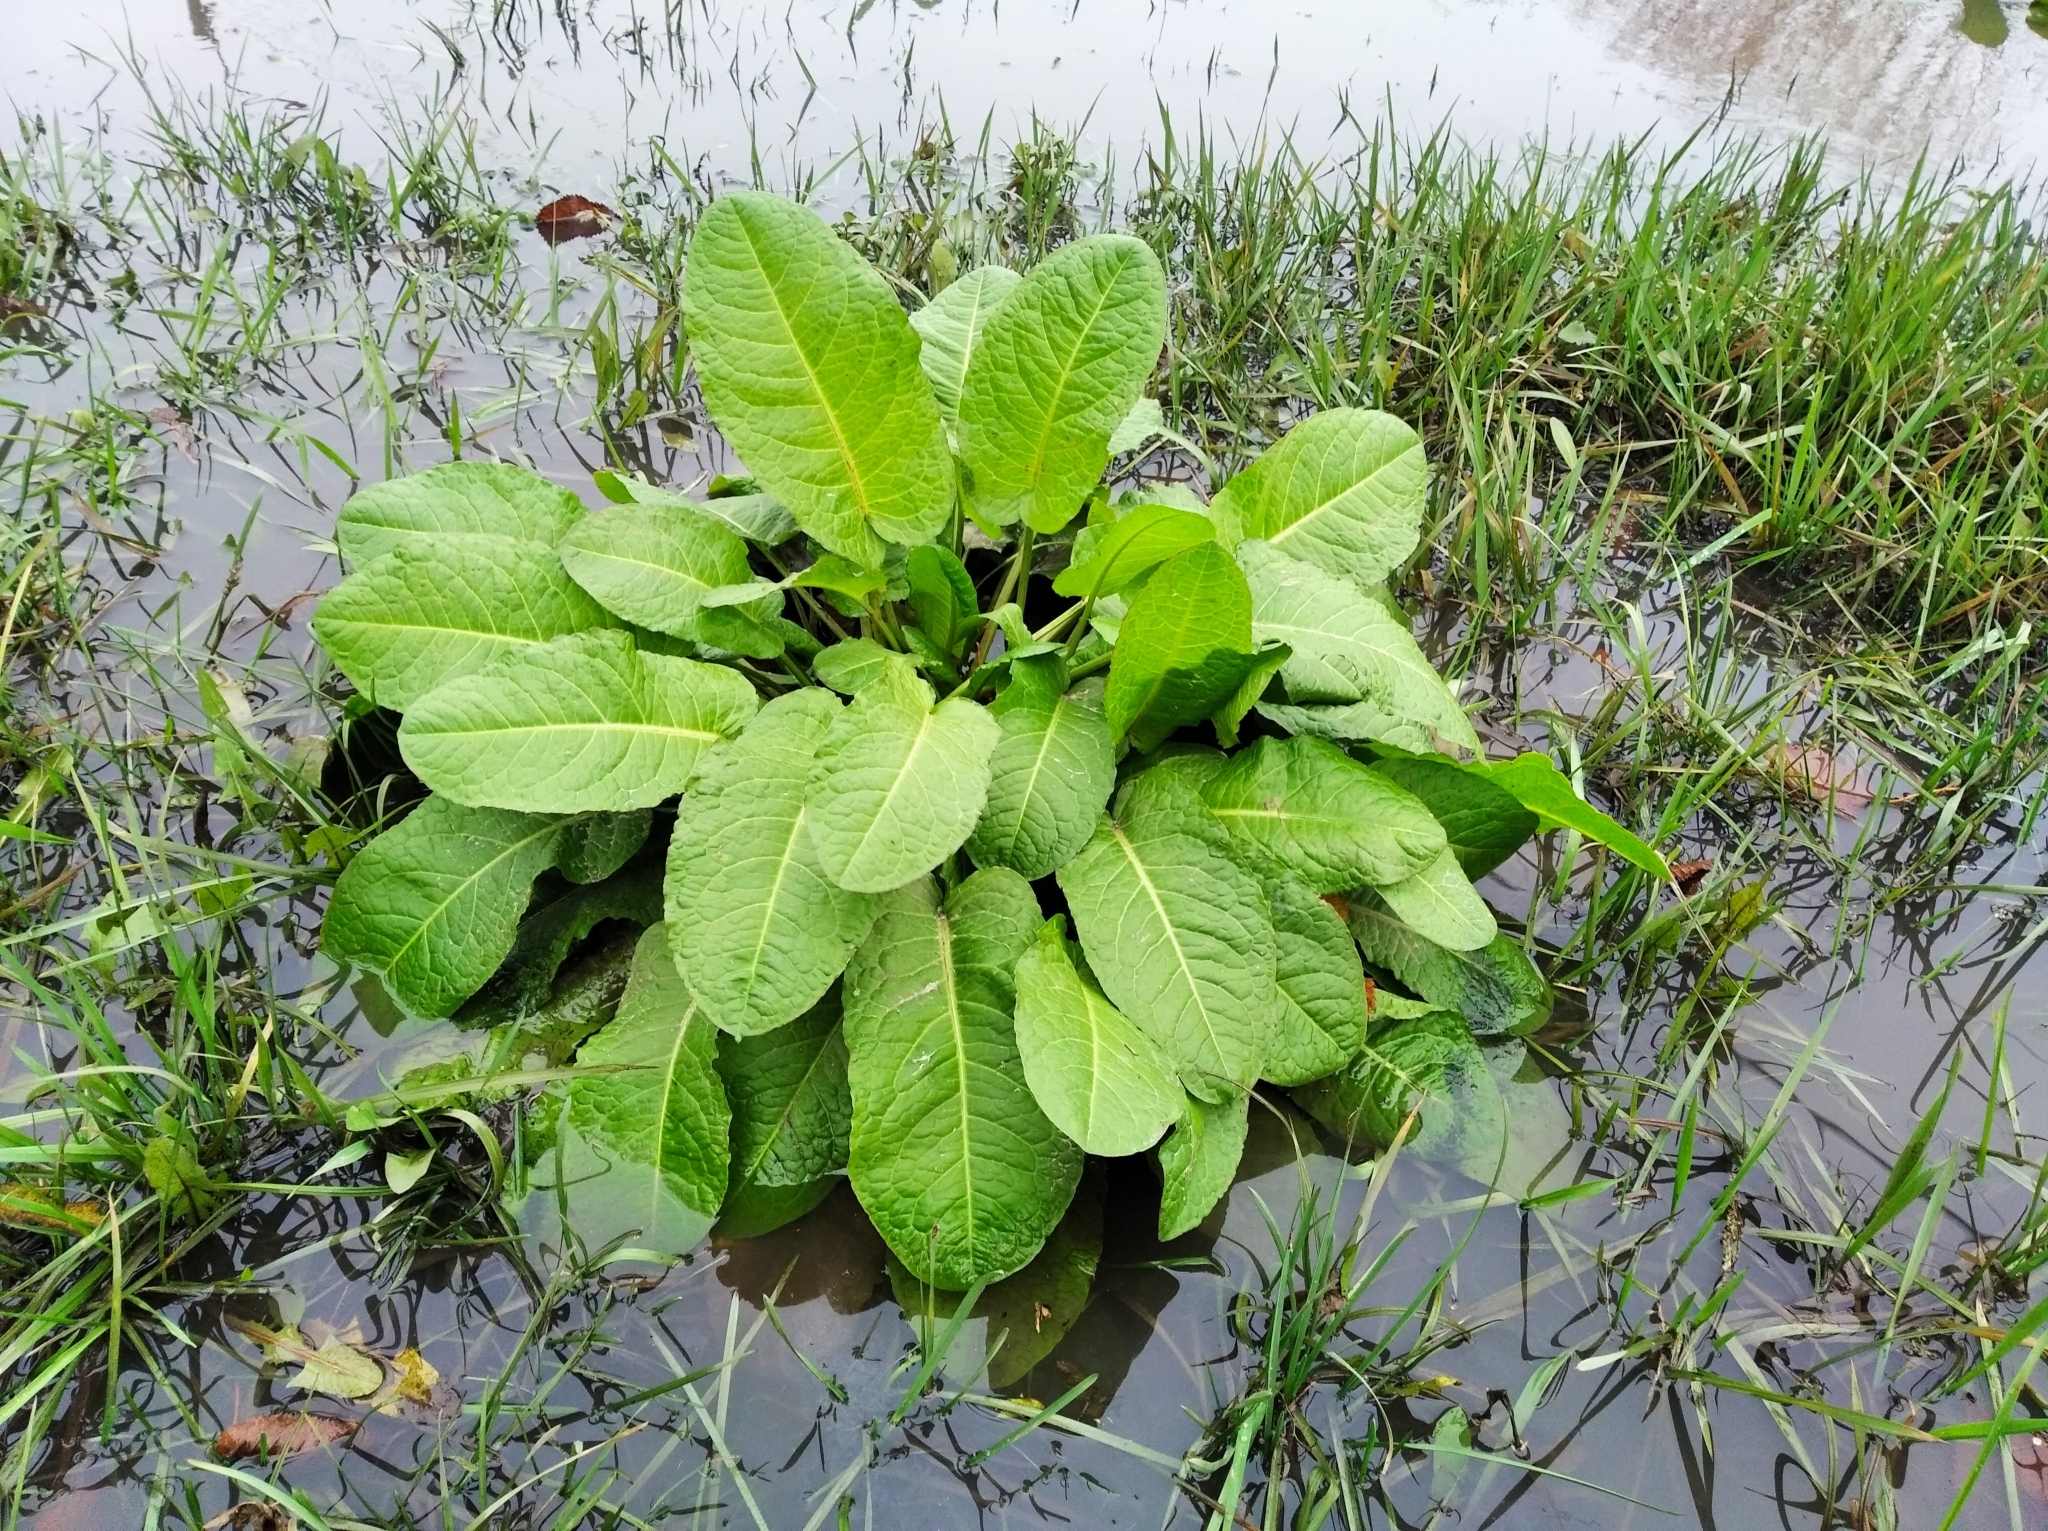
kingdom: Plantae
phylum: Tracheophyta
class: Magnoliopsida
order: Caryophyllales
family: Polygonaceae
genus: Rumex
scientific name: Rumex obtusifolius
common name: Bitter dock
